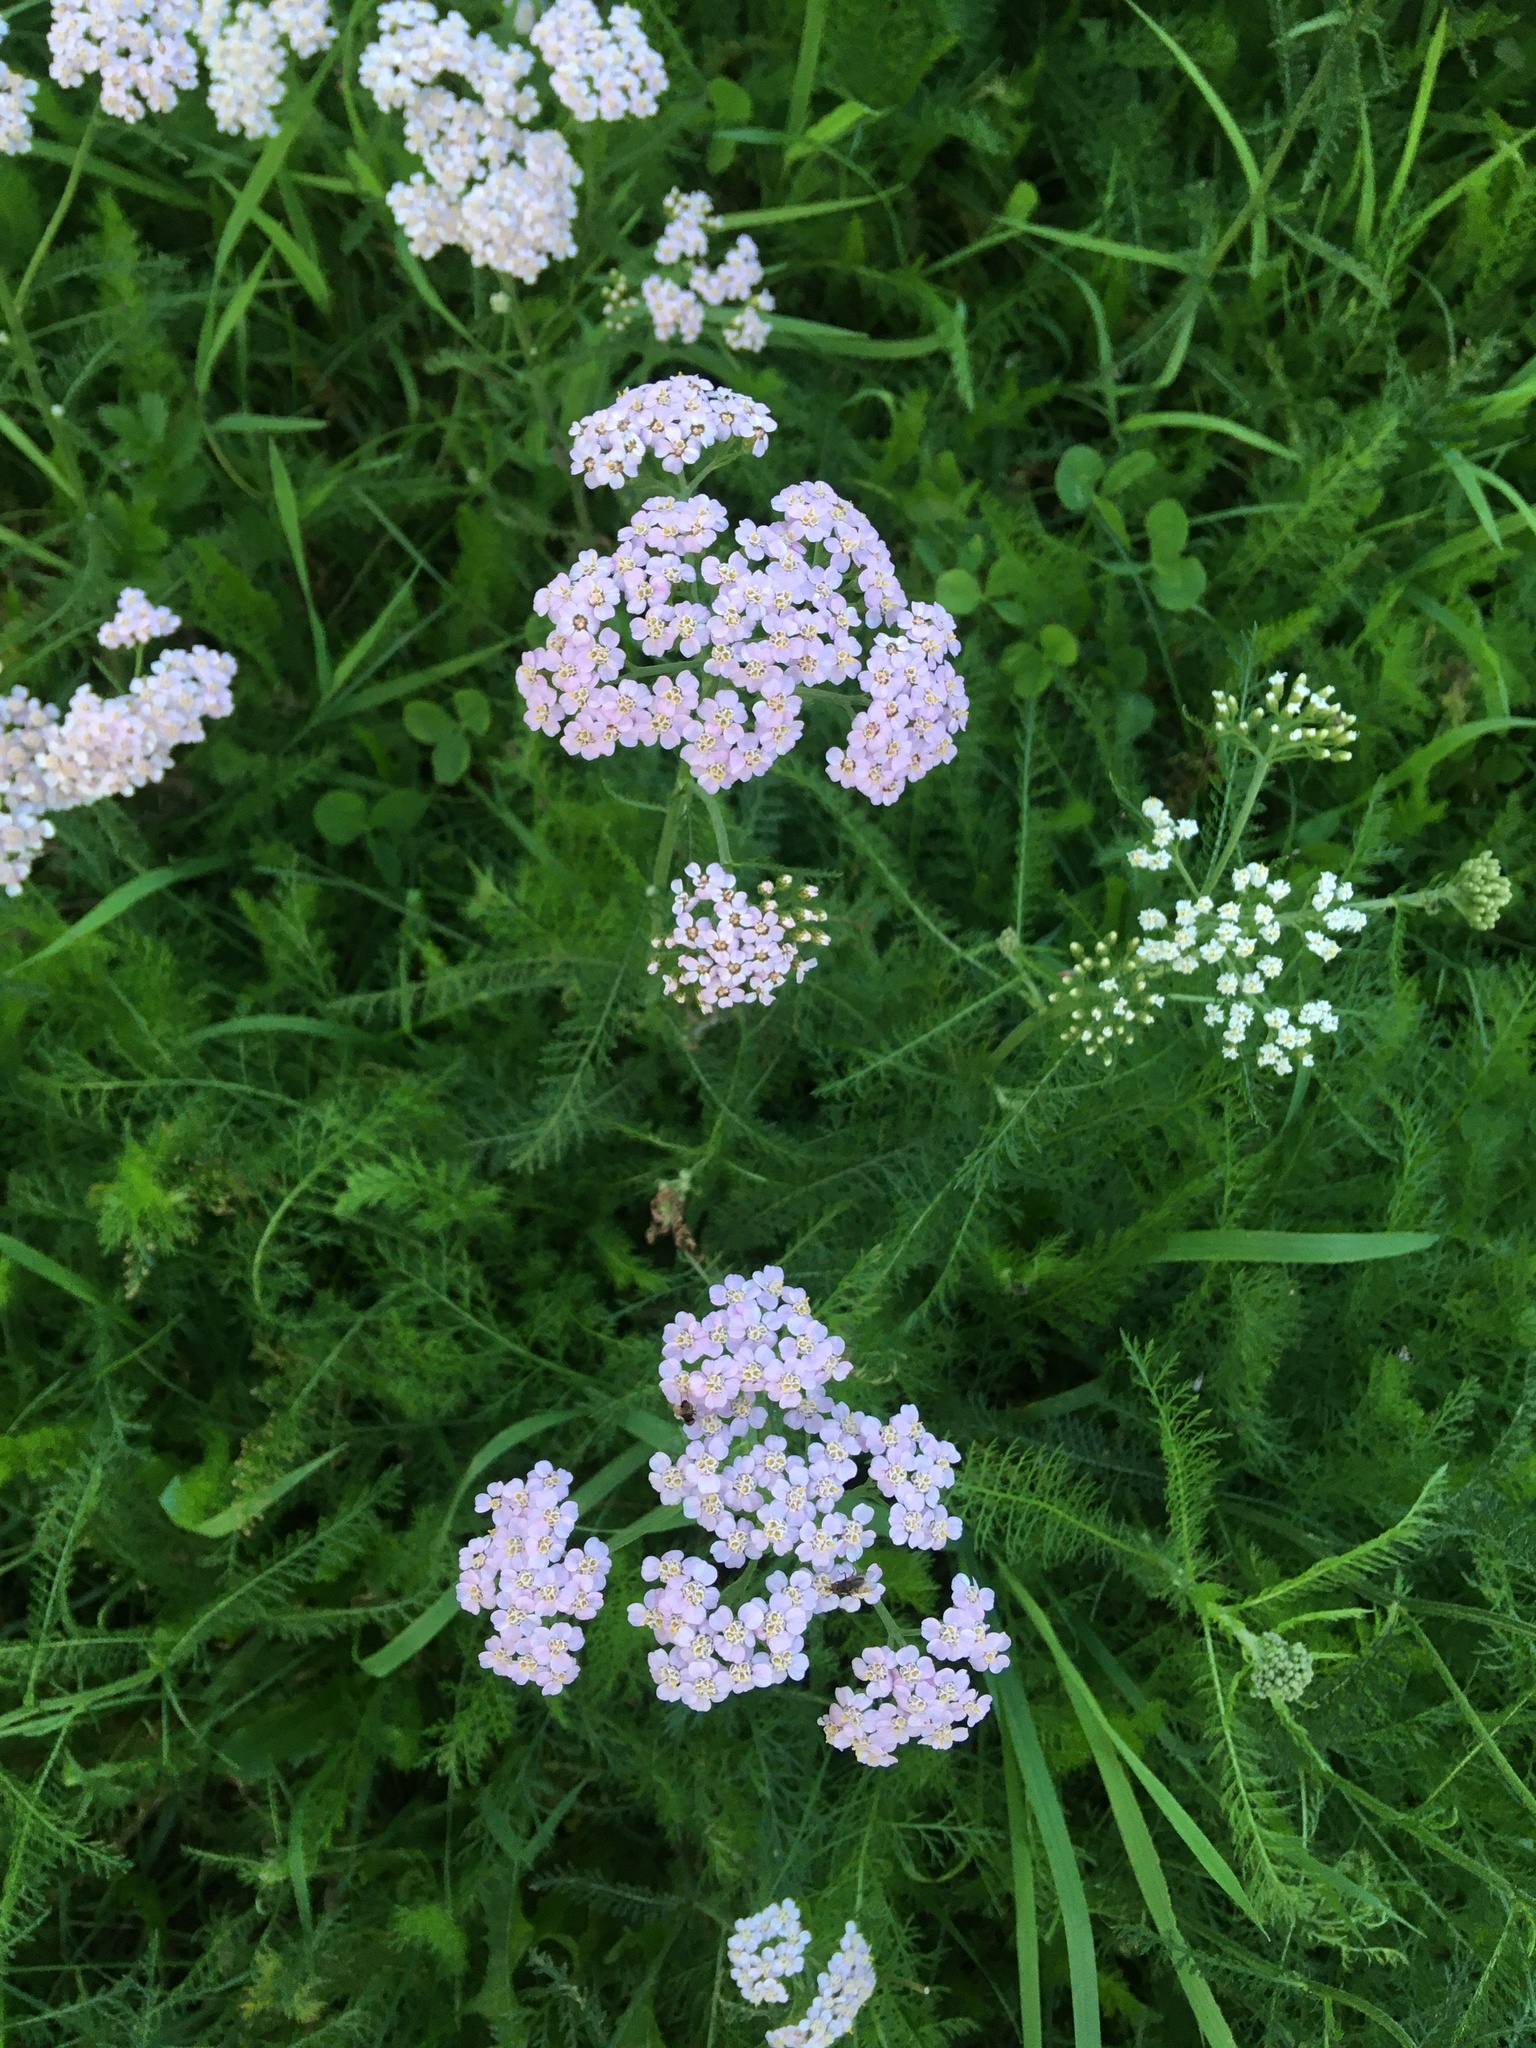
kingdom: Plantae
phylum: Tracheophyta
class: Magnoliopsida
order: Asterales
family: Asteraceae
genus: Achillea
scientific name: Achillea millefolium
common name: Yarrow
